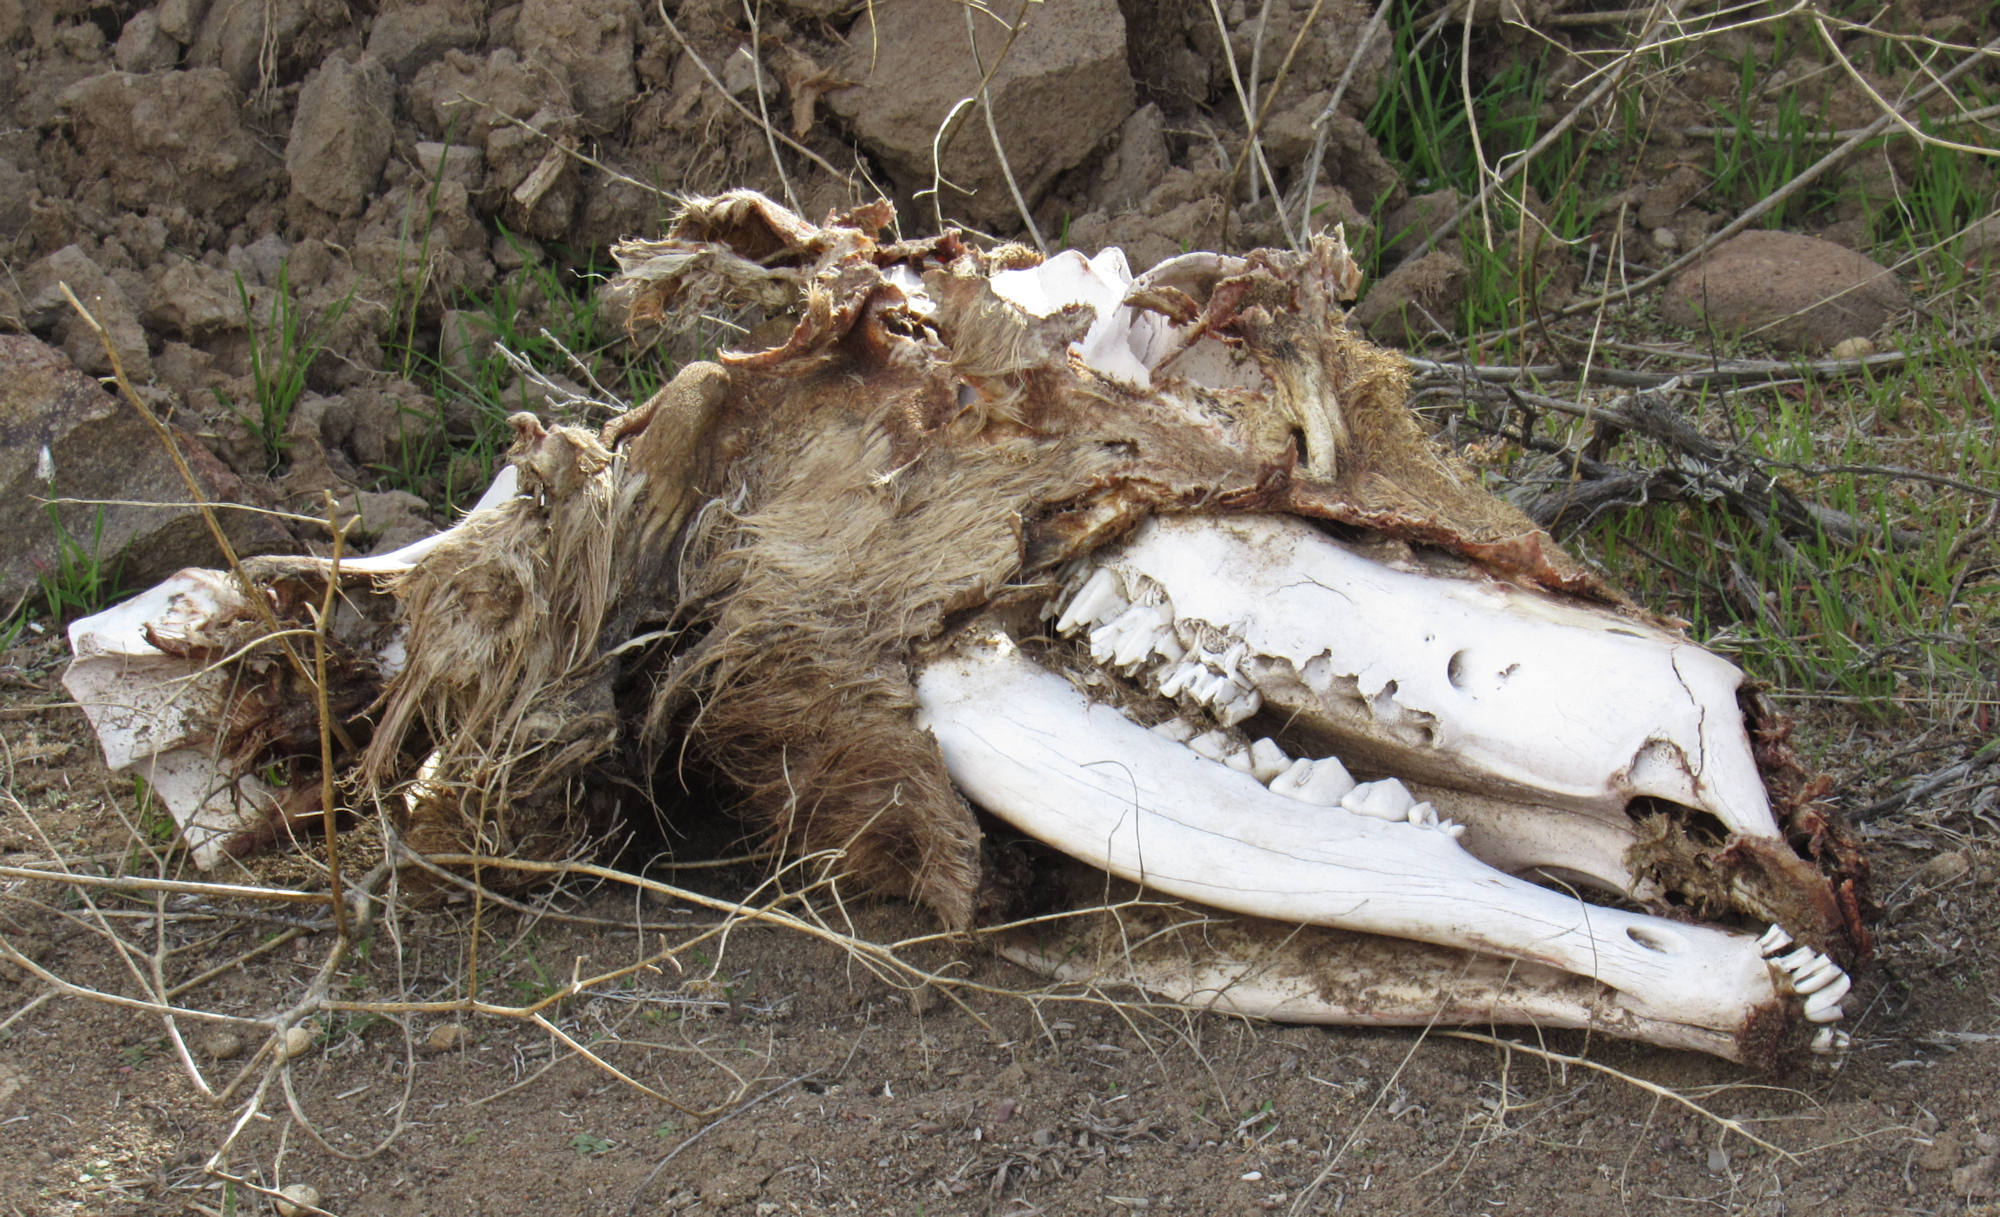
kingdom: Animalia
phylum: Chordata
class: Mammalia
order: Artiodactyla
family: Cervidae
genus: Cervus
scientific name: Cervus elaphus
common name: Red deer
